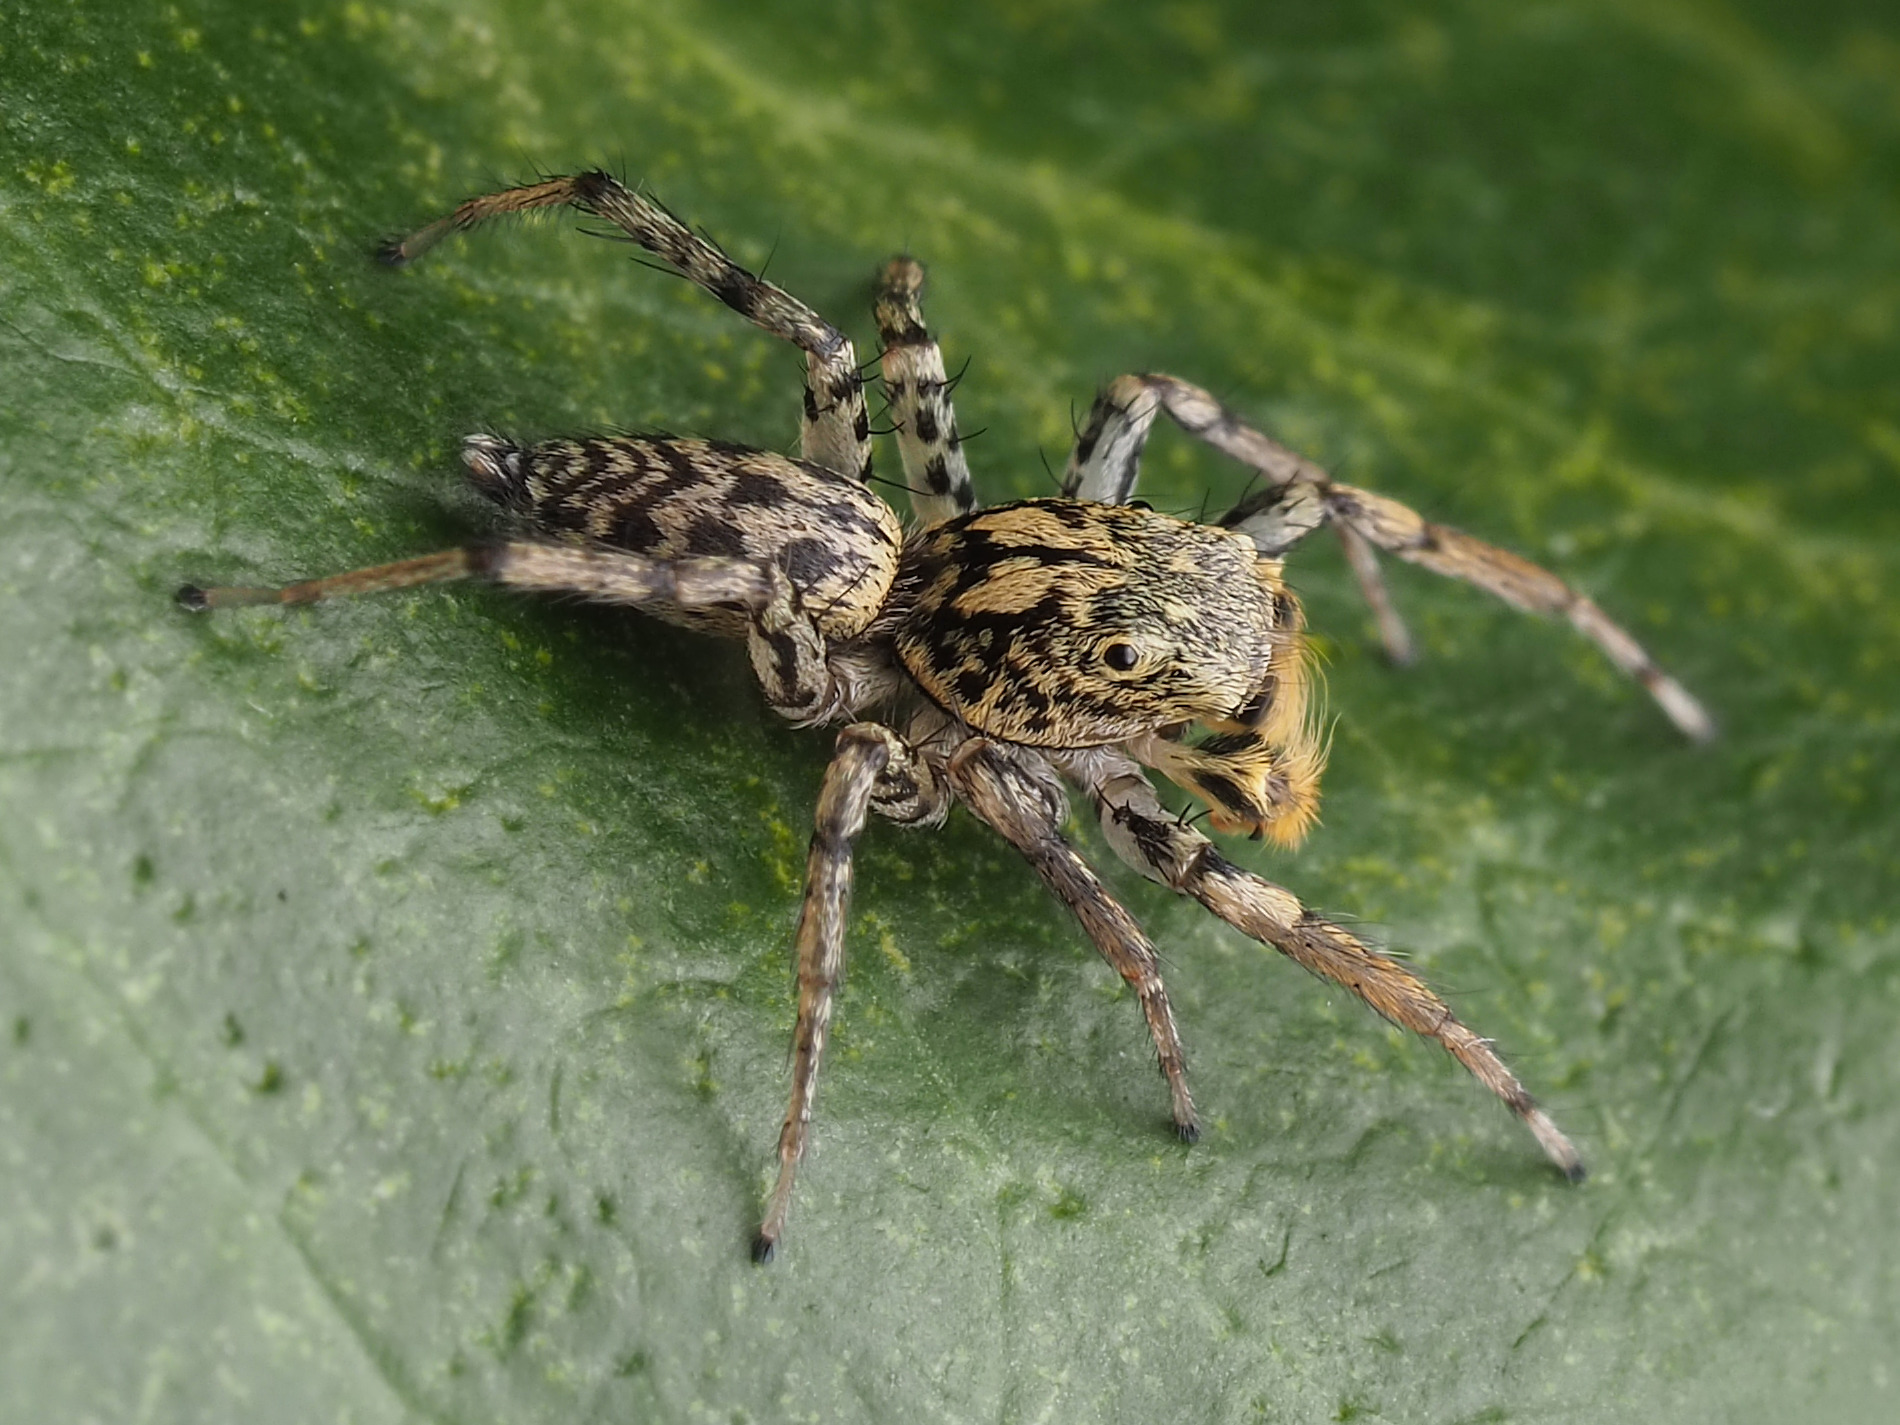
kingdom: Animalia
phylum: Arthropoda
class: Arachnida
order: Araneae
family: Salticidae
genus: Maevia
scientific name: Maevia inclemens
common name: Dimorphic jumper
